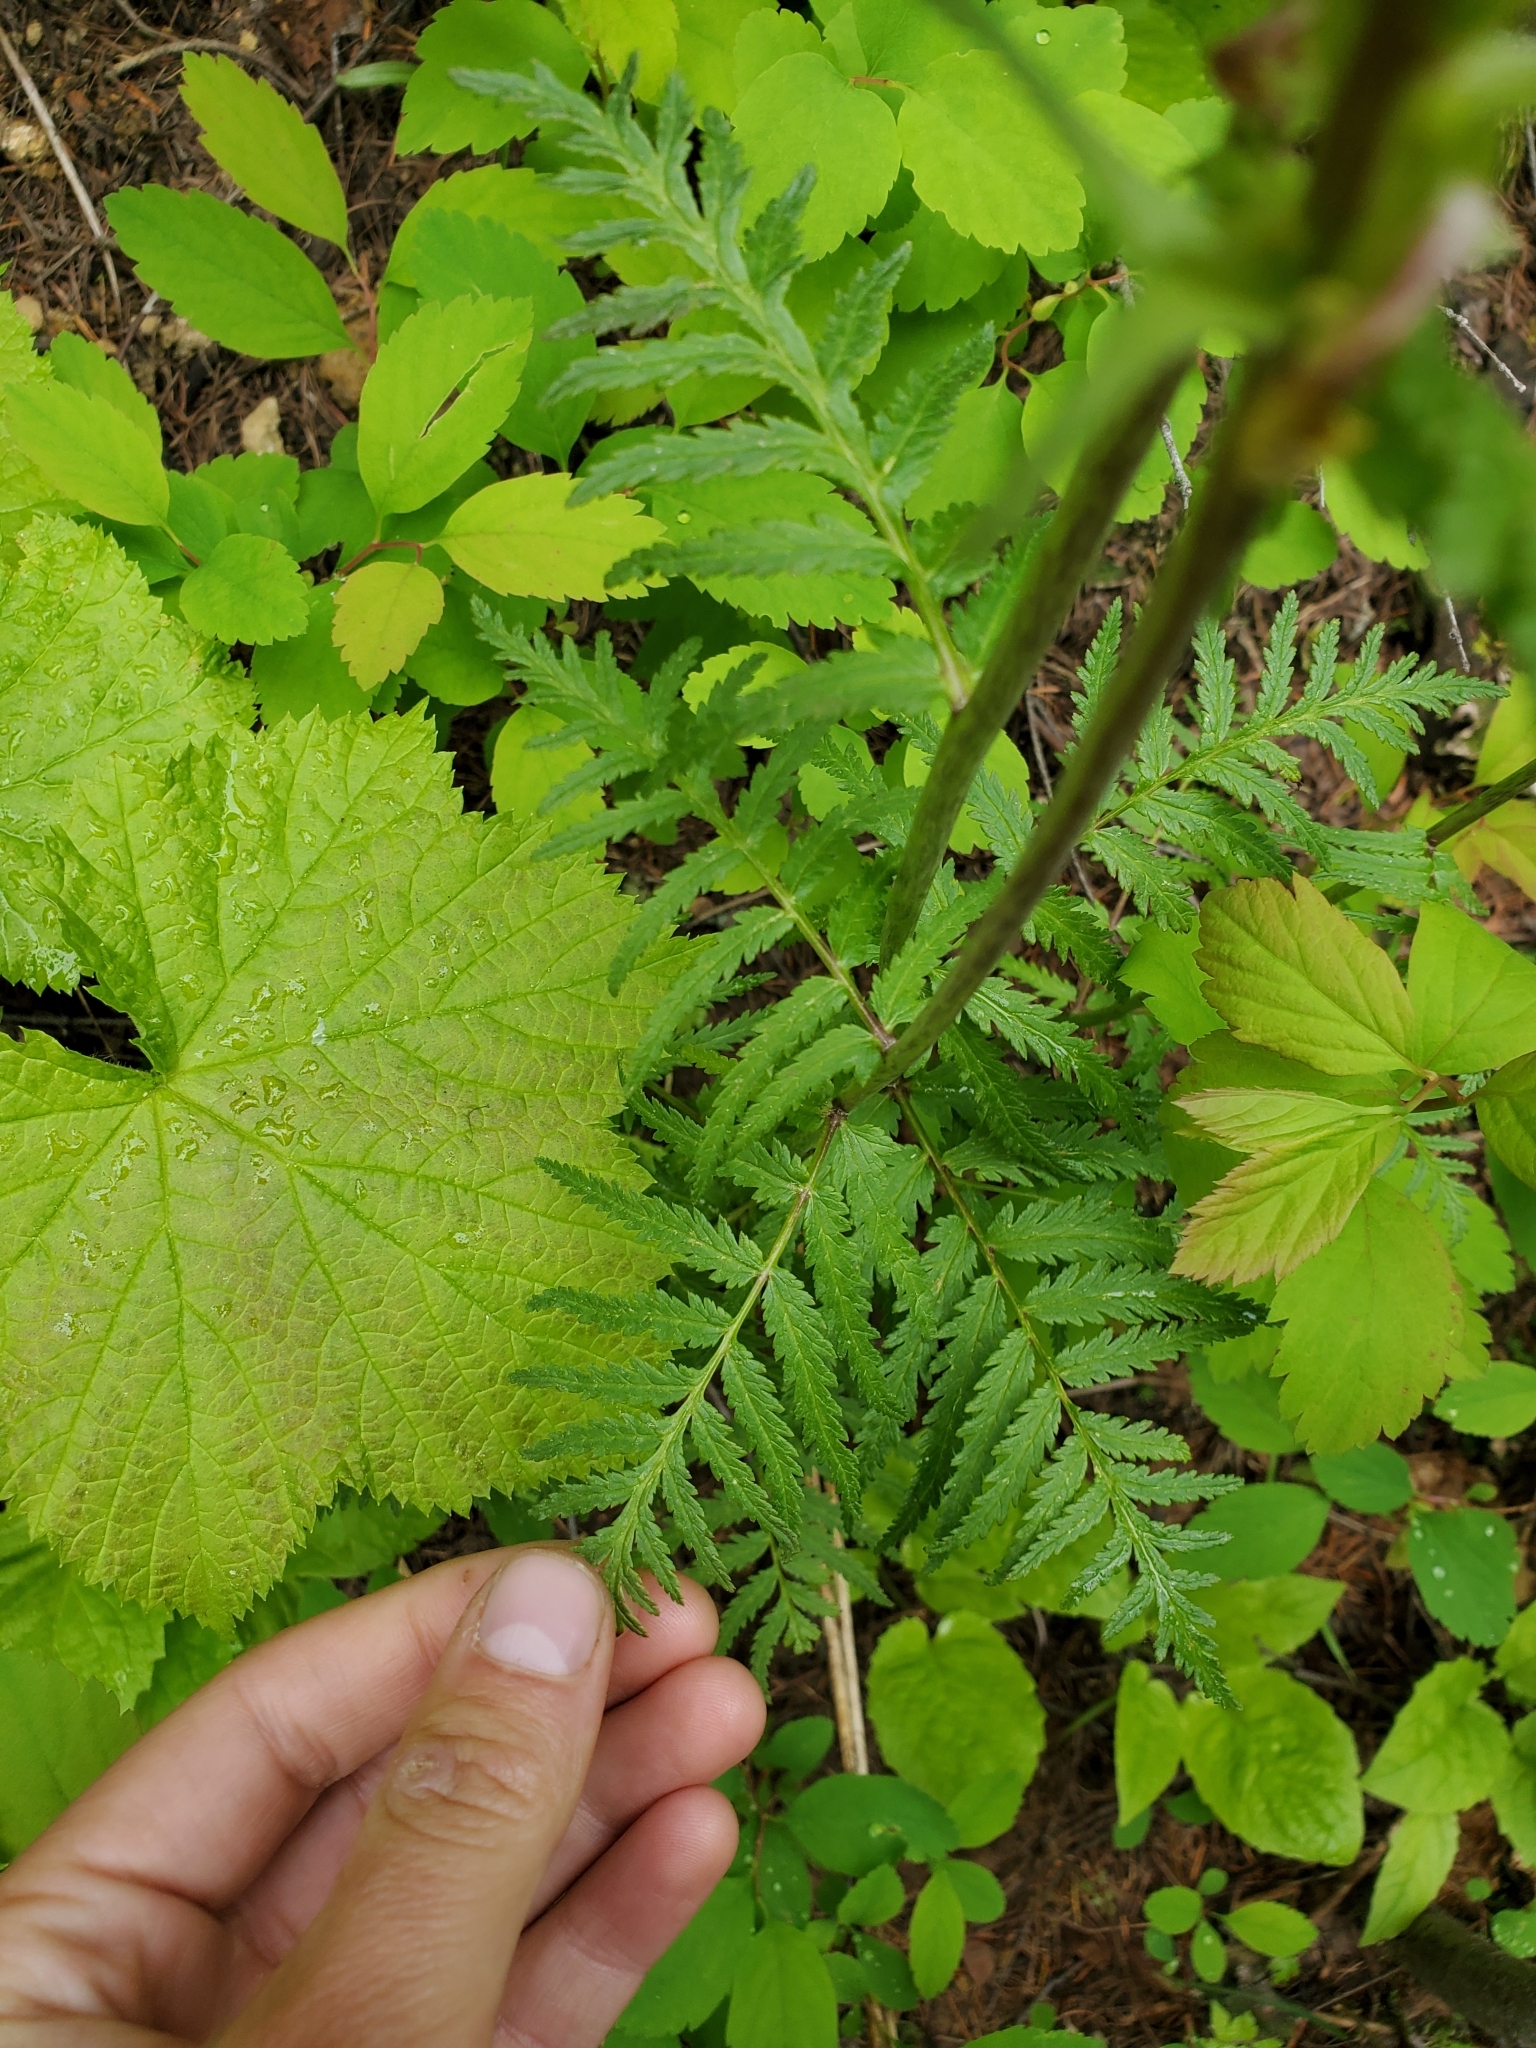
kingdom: Plantae
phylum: Tracheophyta
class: Magnoliopsida
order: Lamiales
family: Orobanchaceae
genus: Pedicularis
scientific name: Pedicularis bracteosa
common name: Bracted lousewort
